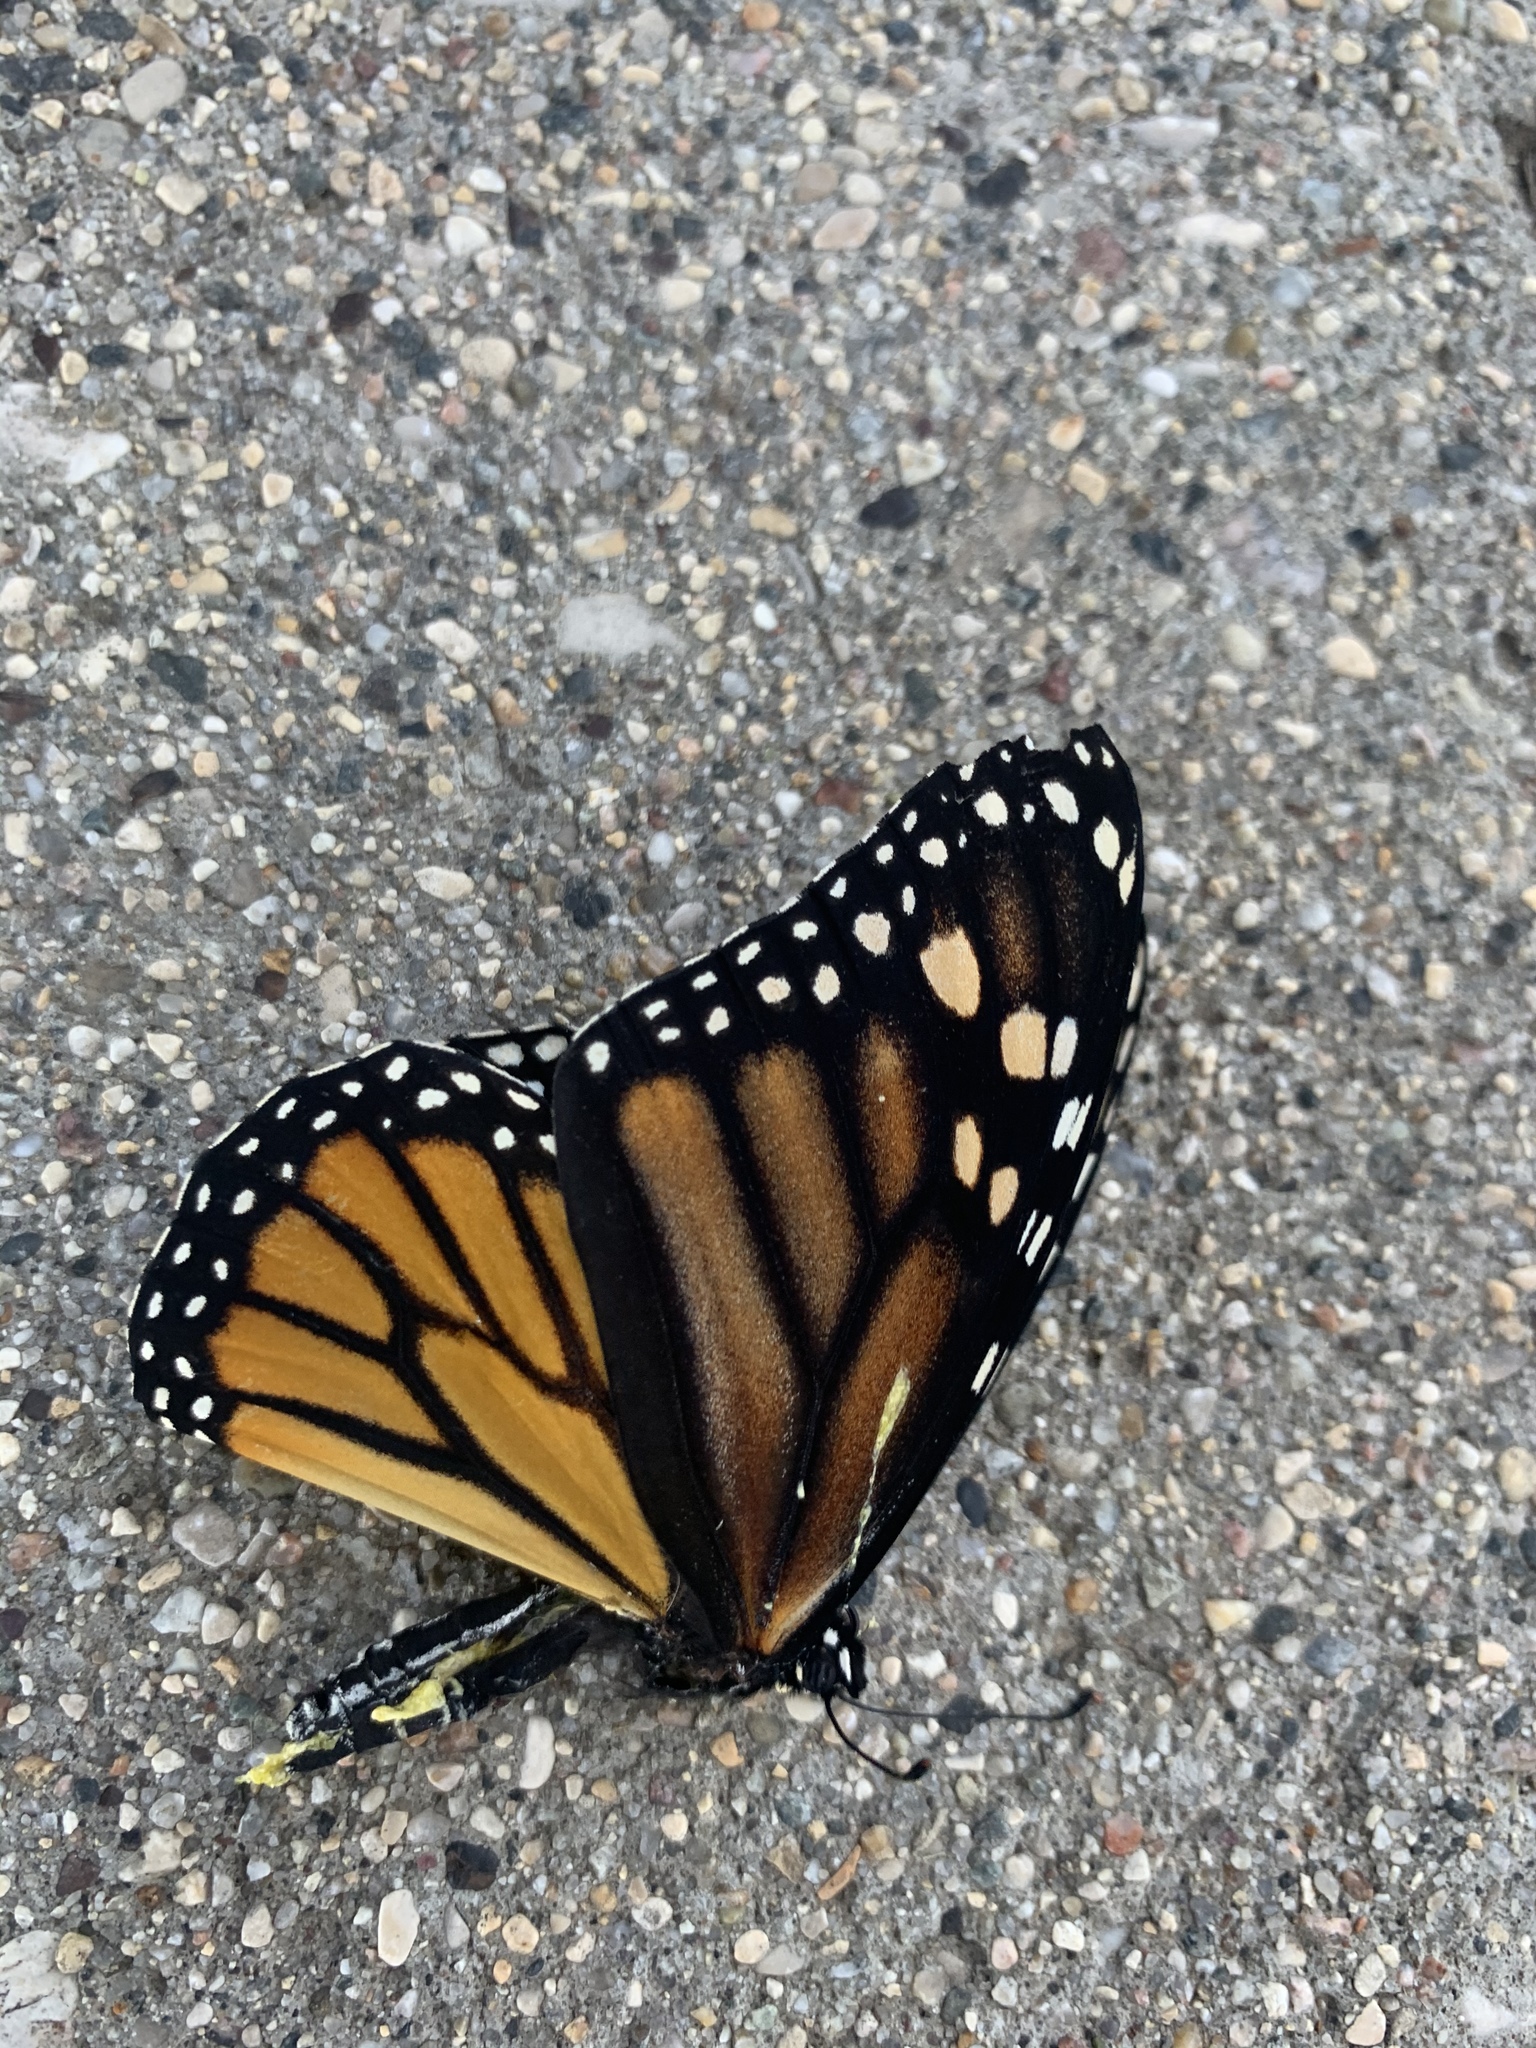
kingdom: Animalia
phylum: Arthropoda
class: Insecta
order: Lepidoptera
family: Nymphalidae
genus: Danaus
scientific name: Danaus plexippus
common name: Monarch
